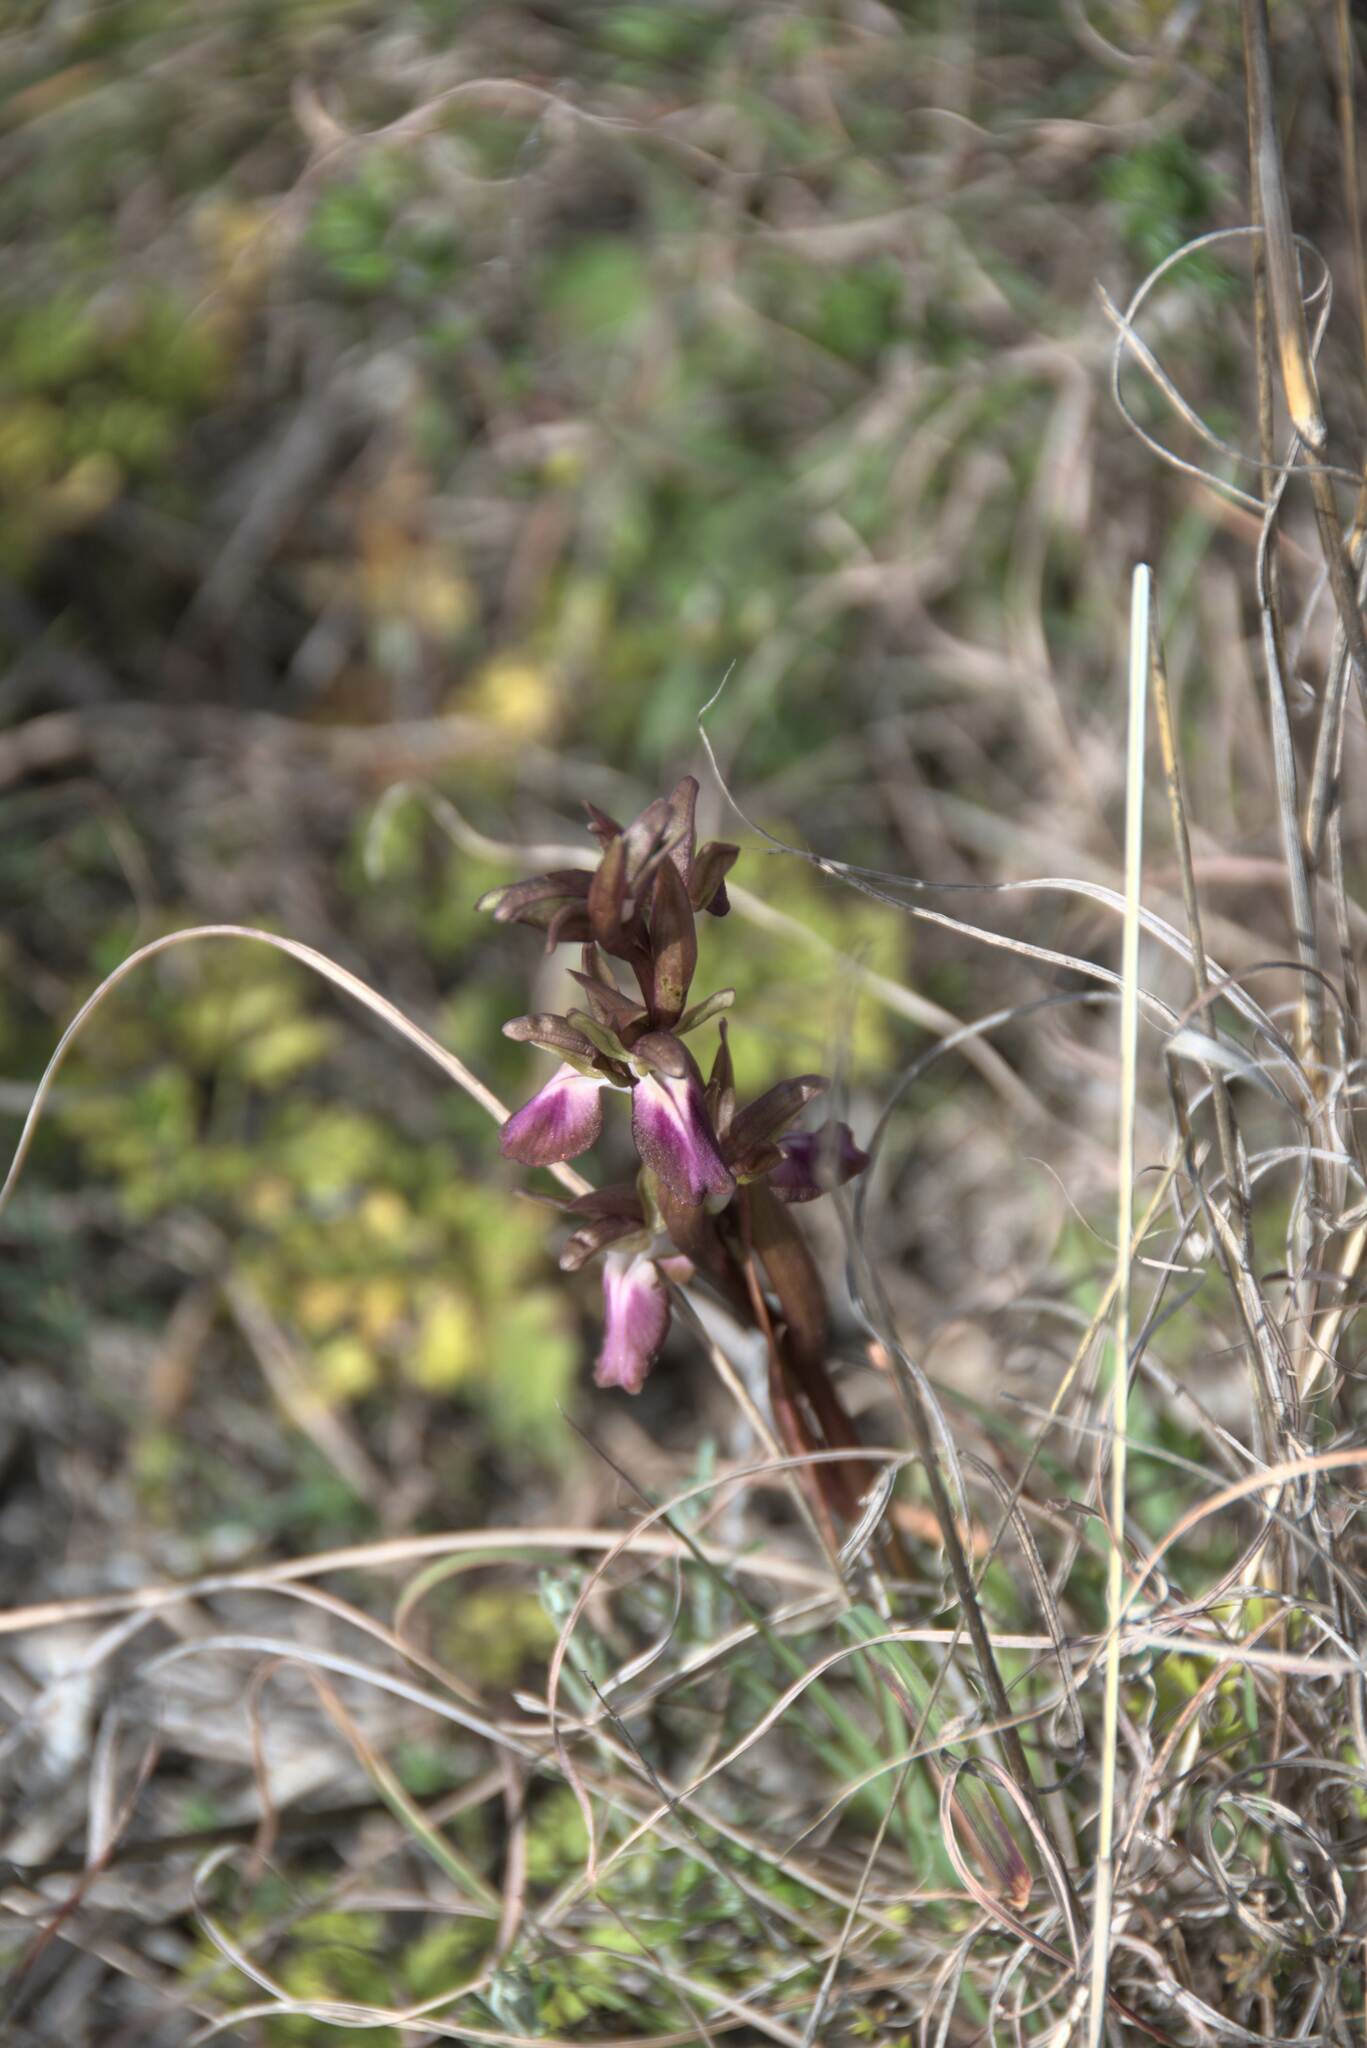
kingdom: Plantae
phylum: Tracheophyta
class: Liliopsida
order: Asparagales
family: Orchidaceae
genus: Anacamptis
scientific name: Anacamptis collina
